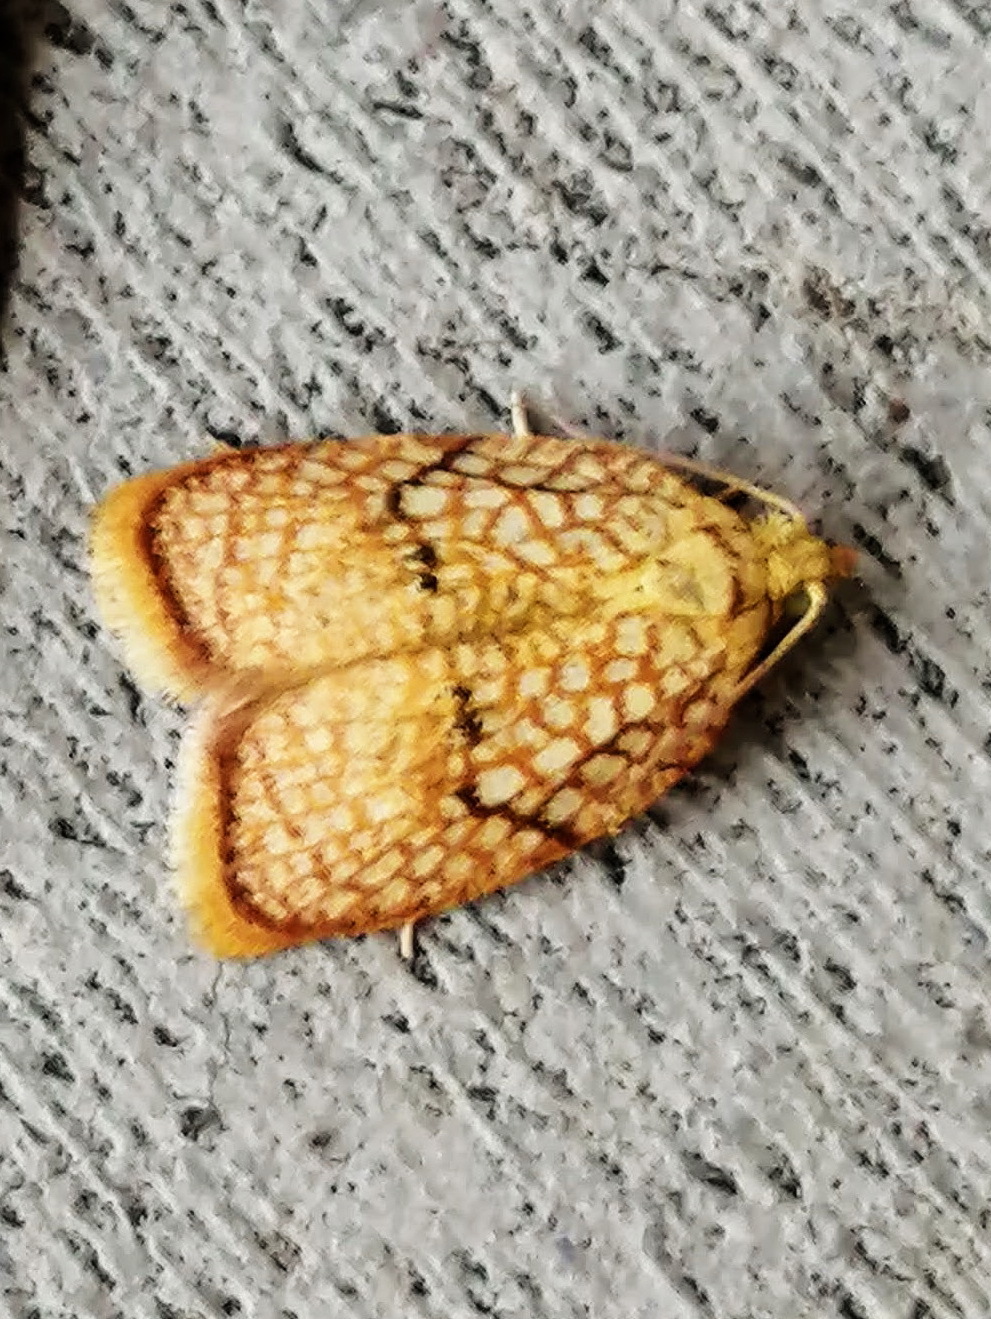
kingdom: Animalia
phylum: Arthropoda
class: Insecta
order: Lepidoptera
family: Tortricidae
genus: Acleris
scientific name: Acleris forsskaleana
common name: Maple button
